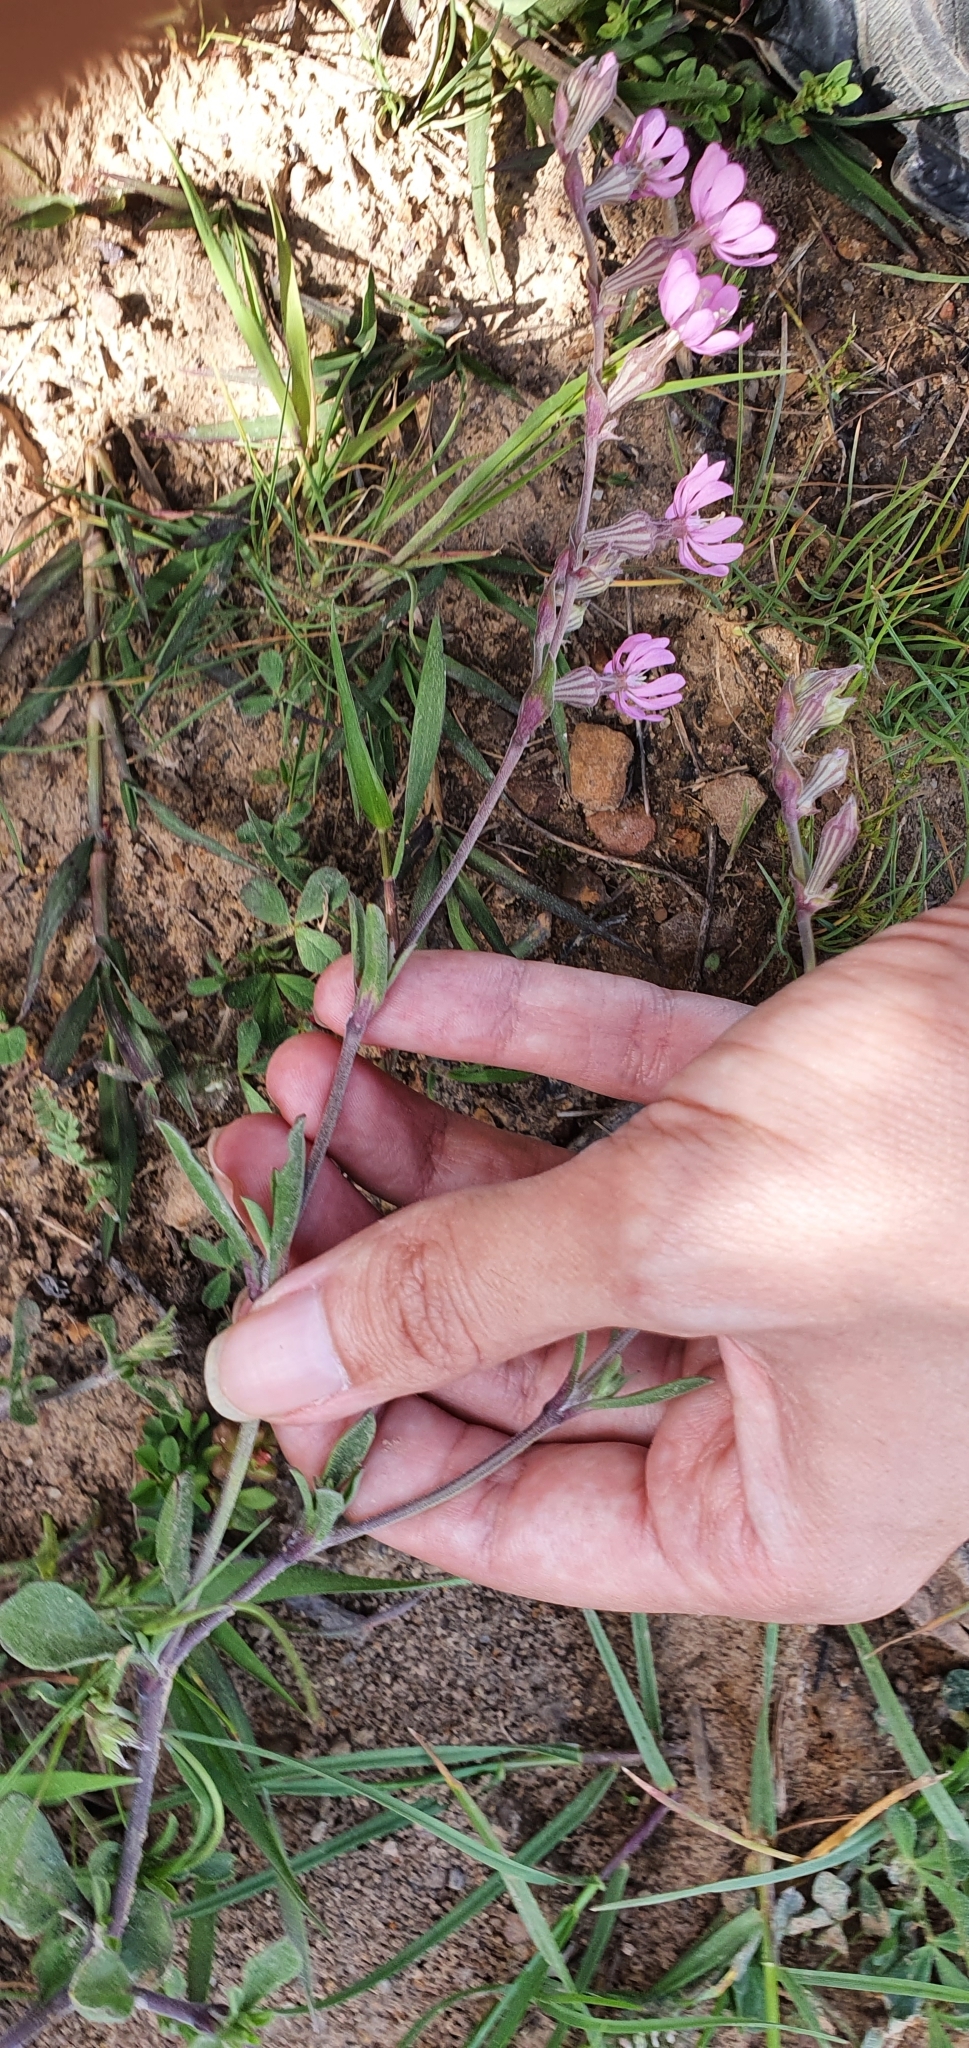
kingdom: Plantae
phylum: Tracheophyta
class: Magnoliopsida
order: Caryophyllales
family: Caryophyllaceae
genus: Silene
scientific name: Silene secundiflora
